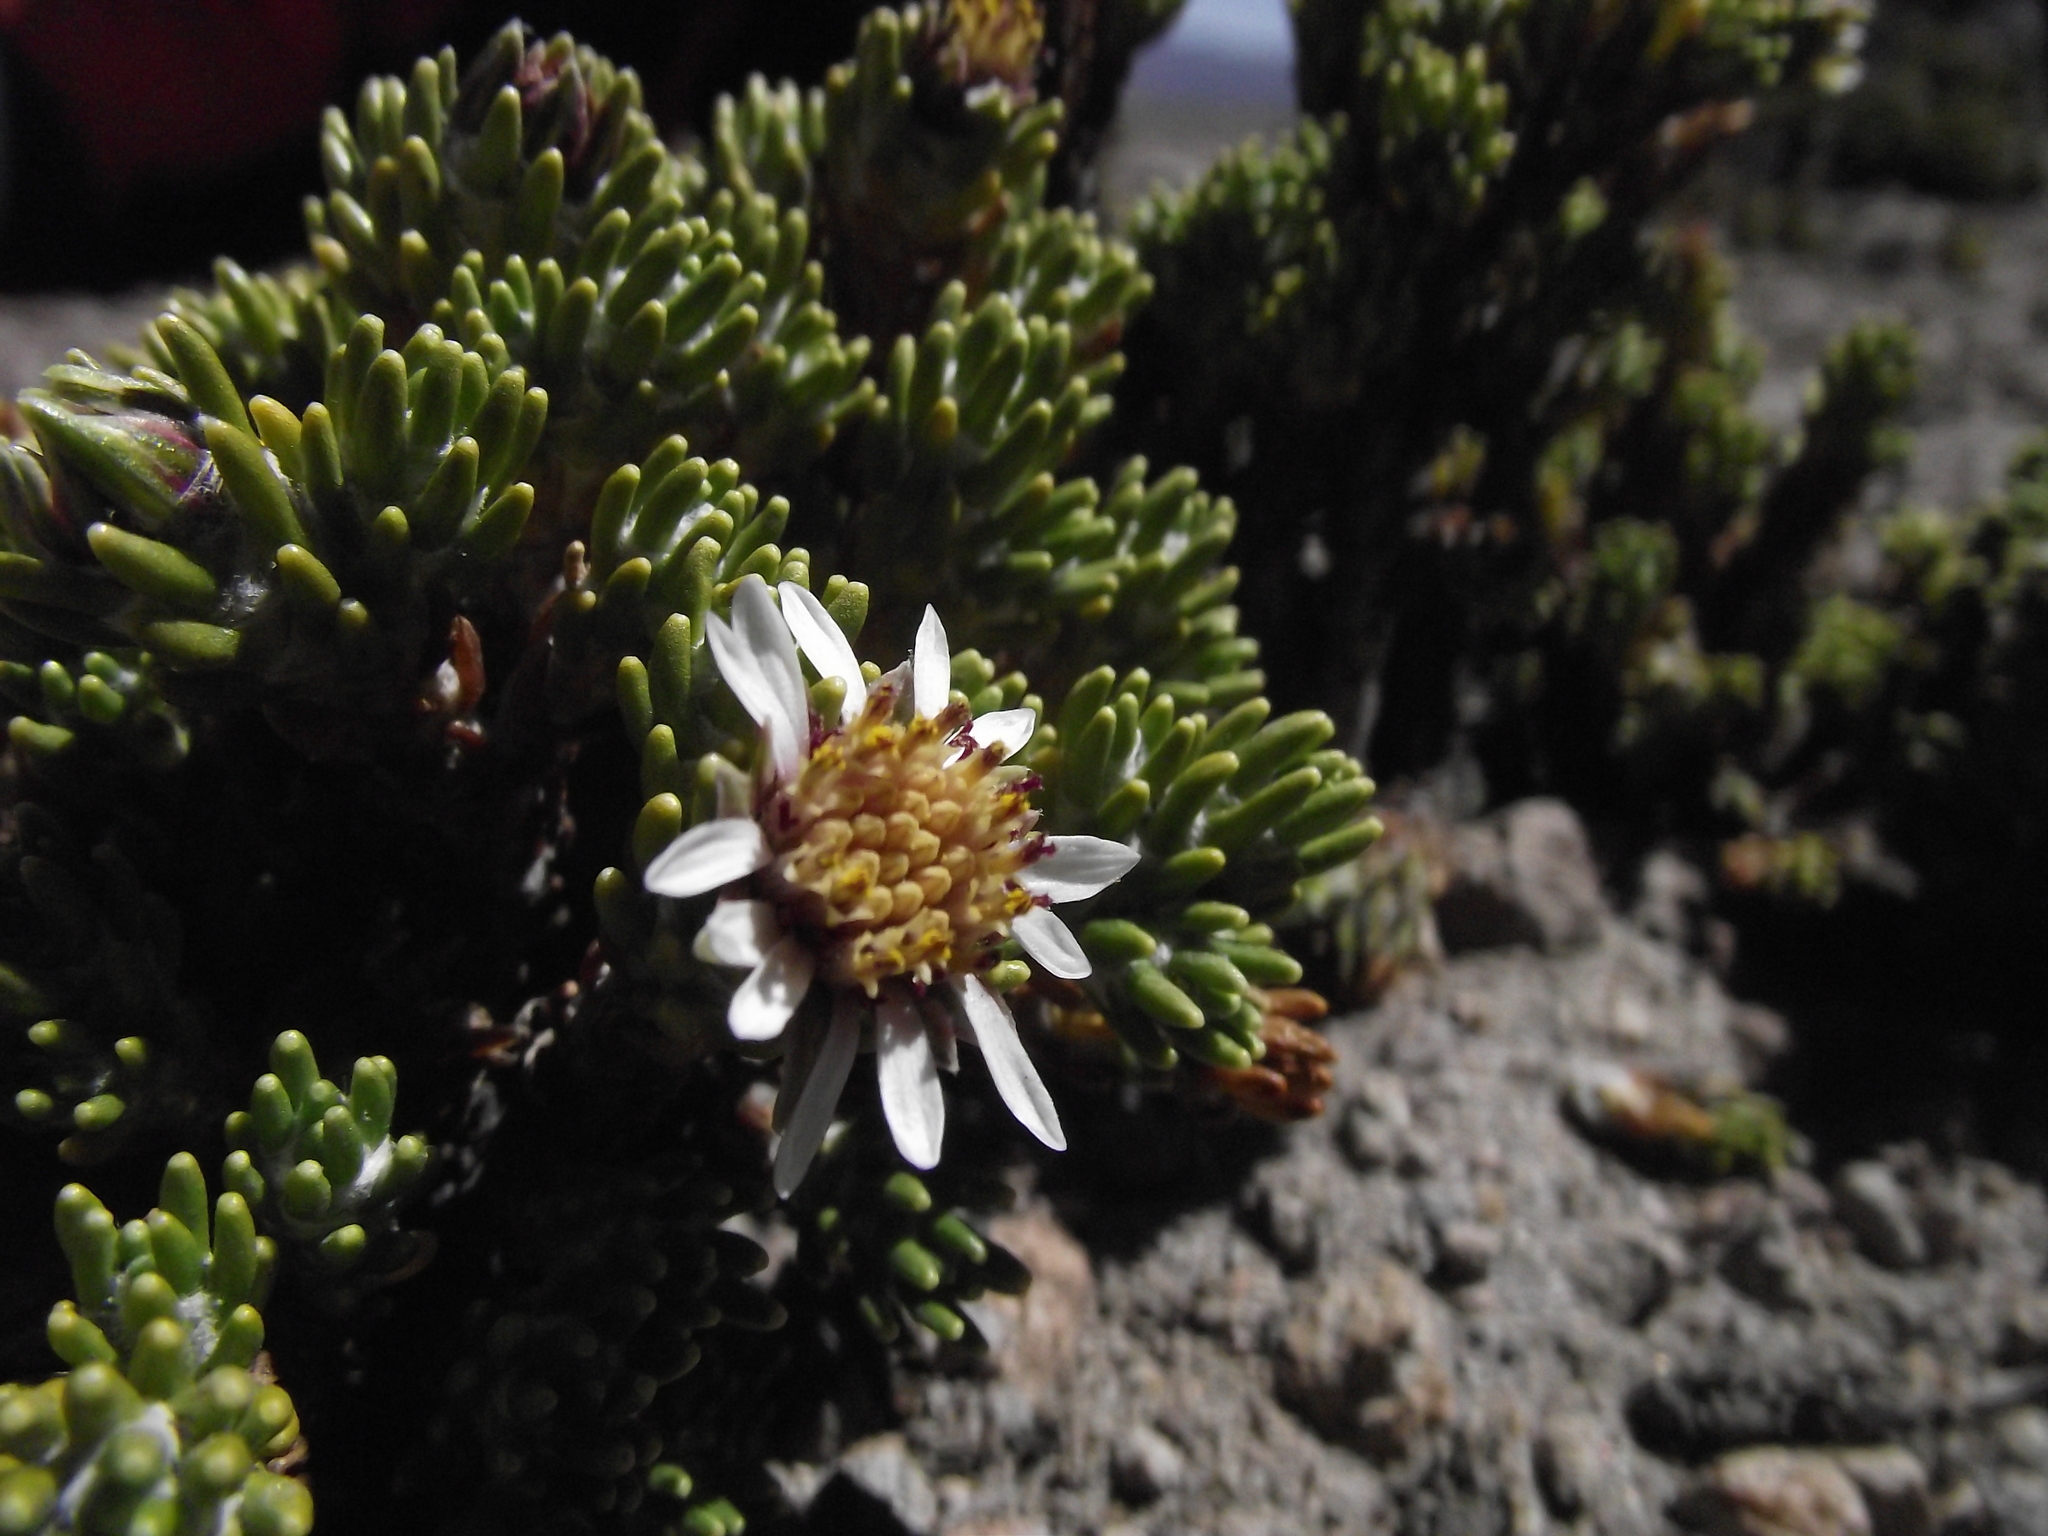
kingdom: Plantae
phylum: Tracheophyta
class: Magnoliopsida
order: Asterales
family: Asteraceae
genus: Werneria
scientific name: Werneria poposa
